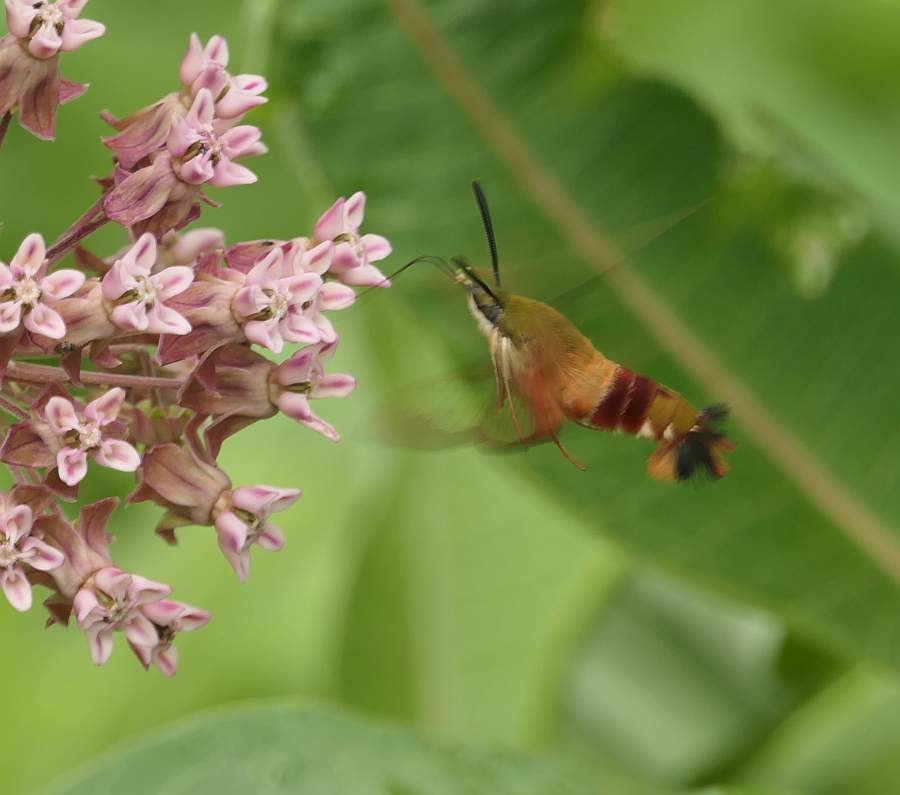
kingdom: Animalia
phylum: Arthropoda
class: Insecta
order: Lepidoptera
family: Sphingidae
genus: Hemaris
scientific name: Hemaris thysbe
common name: Common clear-wing
